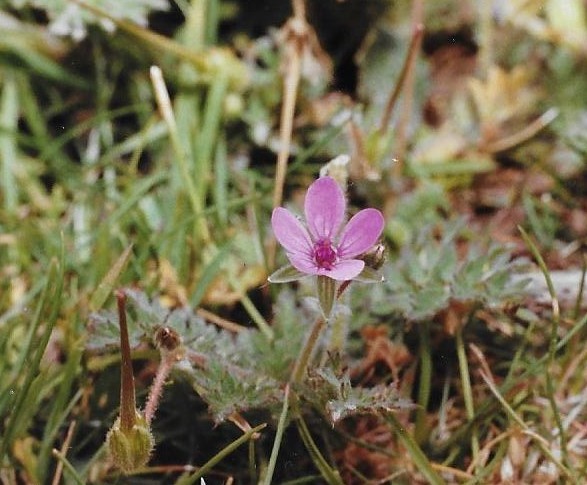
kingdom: Plantae
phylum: Tracheophyta
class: Magnoliopsida
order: Geraniales
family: Geraniaceae
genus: Erodium
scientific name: Erodium cicutarium
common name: Common stork's-bill
